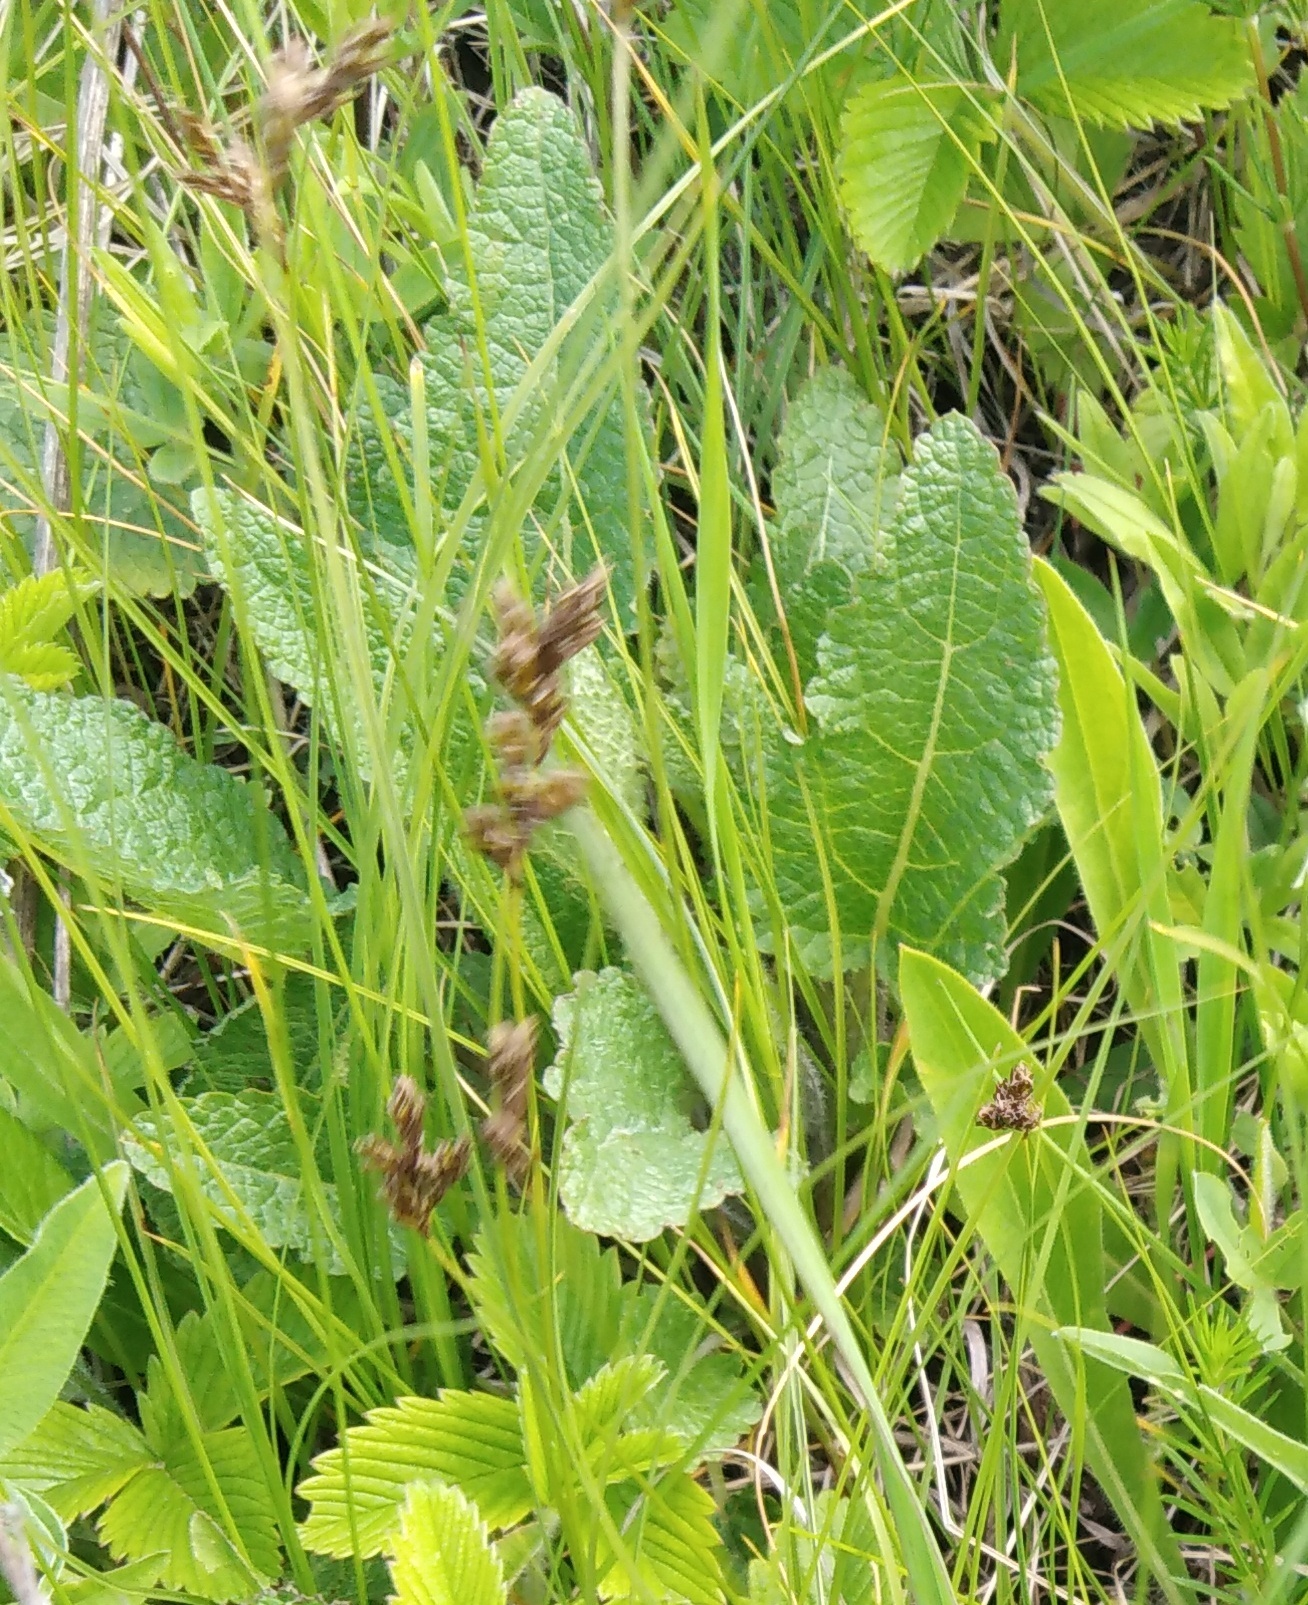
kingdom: Plantae
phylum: Tracheophyta
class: Magnoliopsida
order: Lamiales
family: Lamiaceae
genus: Salvia
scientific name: Salvia pratensis
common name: Meadow sage
